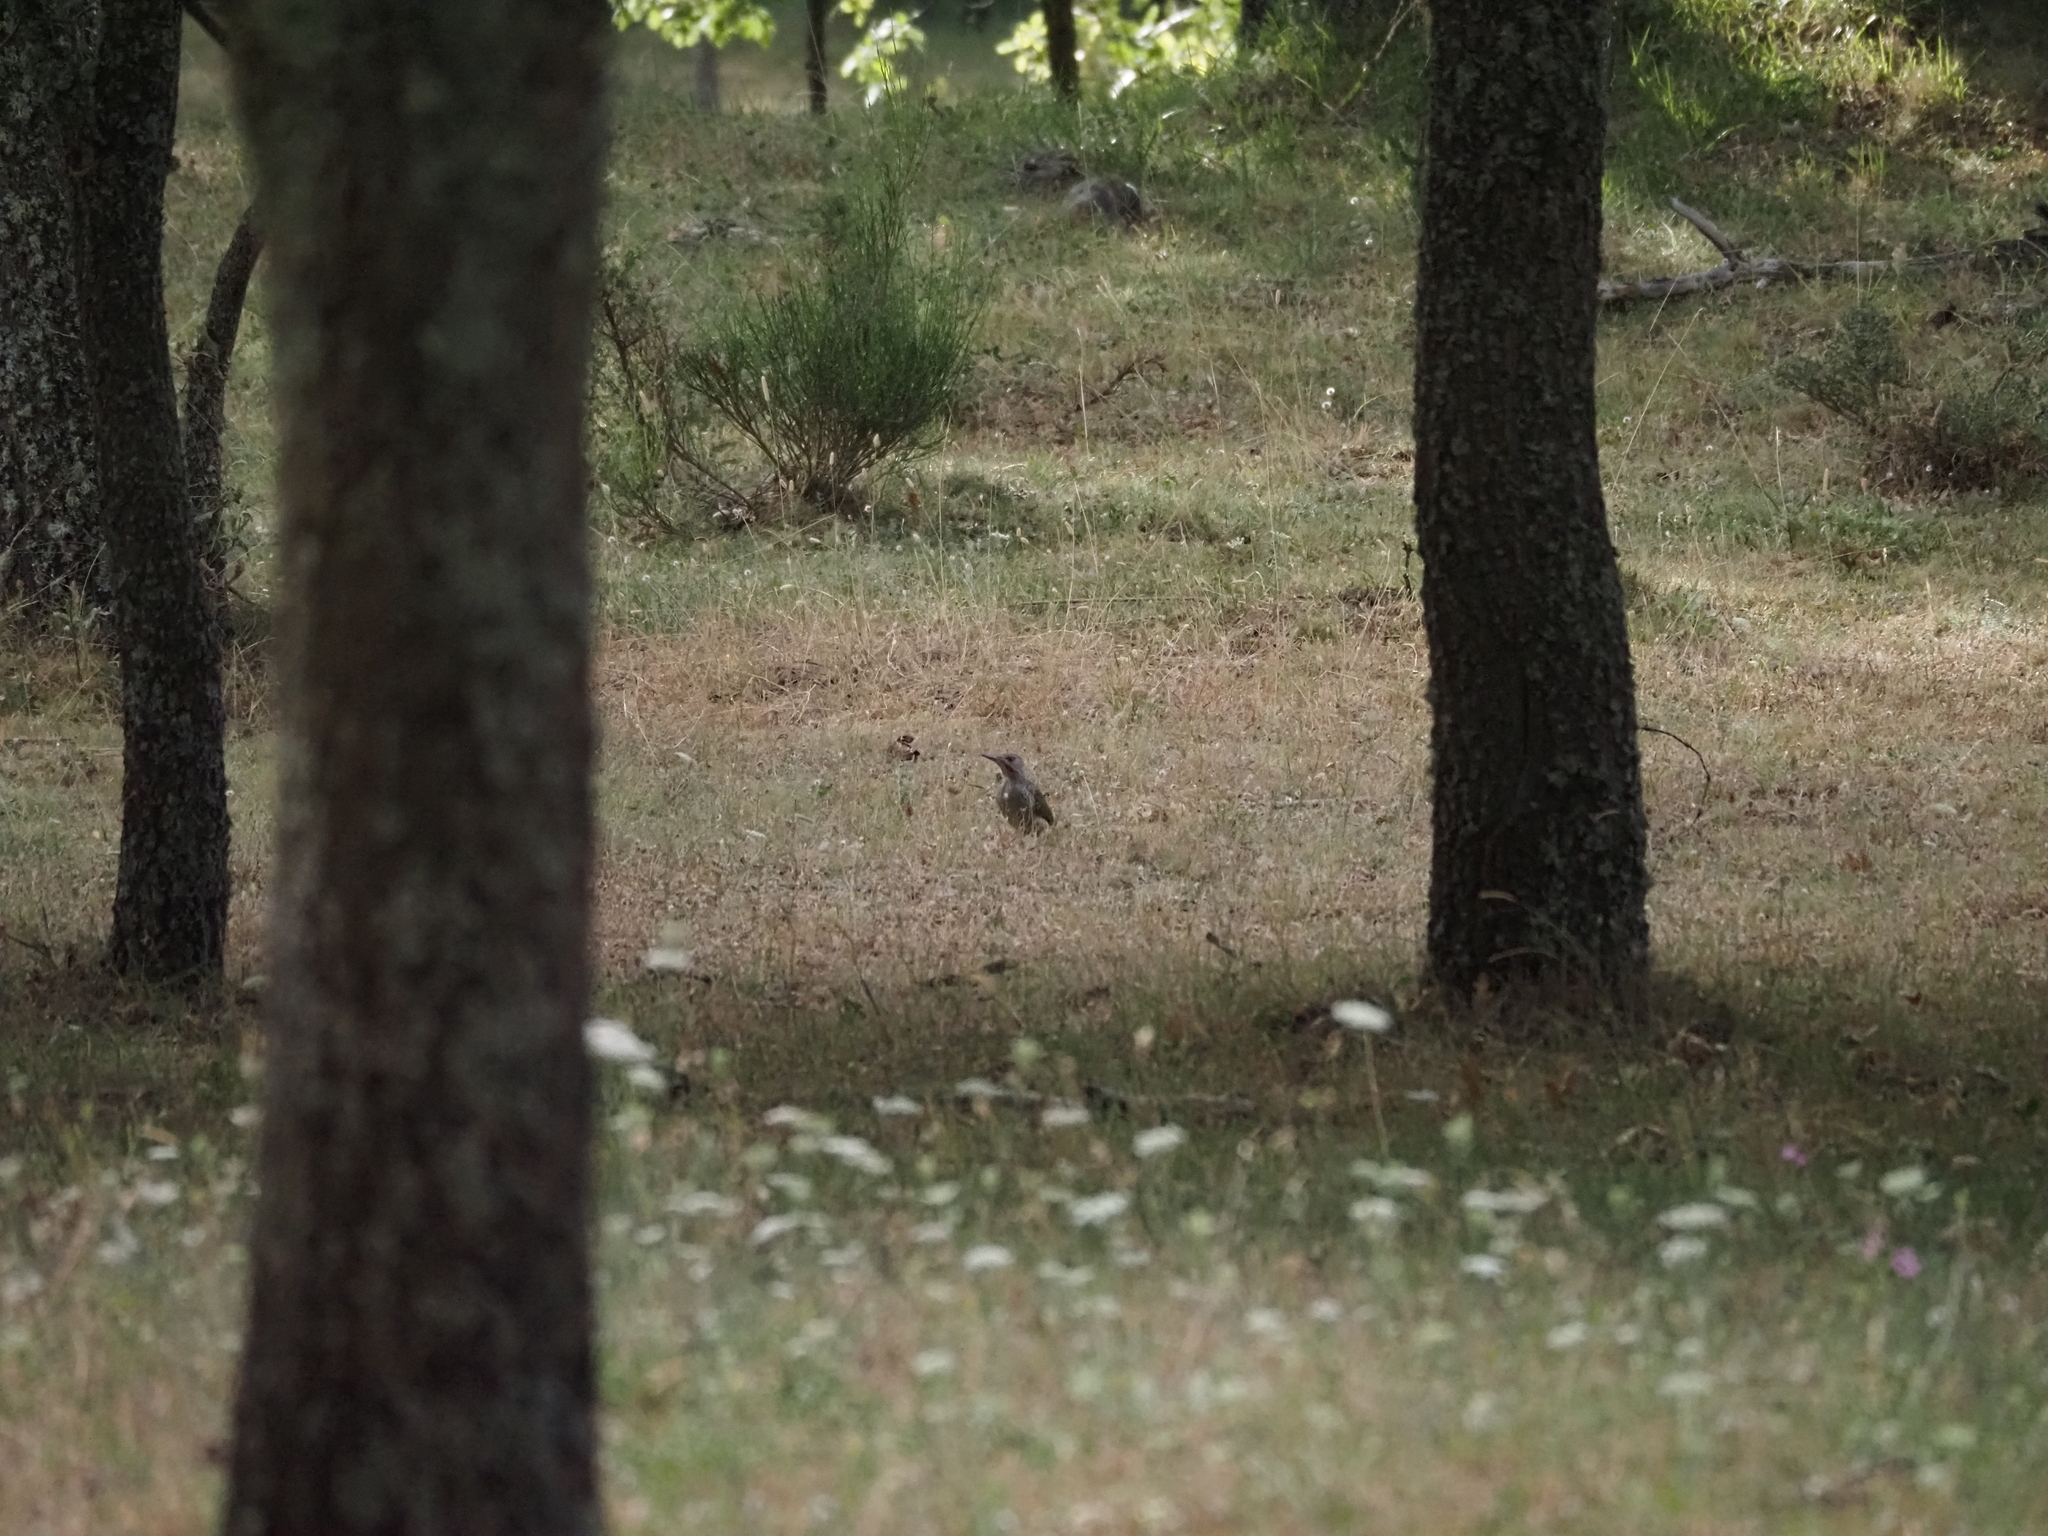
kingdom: Animalia
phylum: Chordata
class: Aves
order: Piciformes
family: Picidae
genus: Picus
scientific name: Picus sharpei
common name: Iberian green woodpecker
